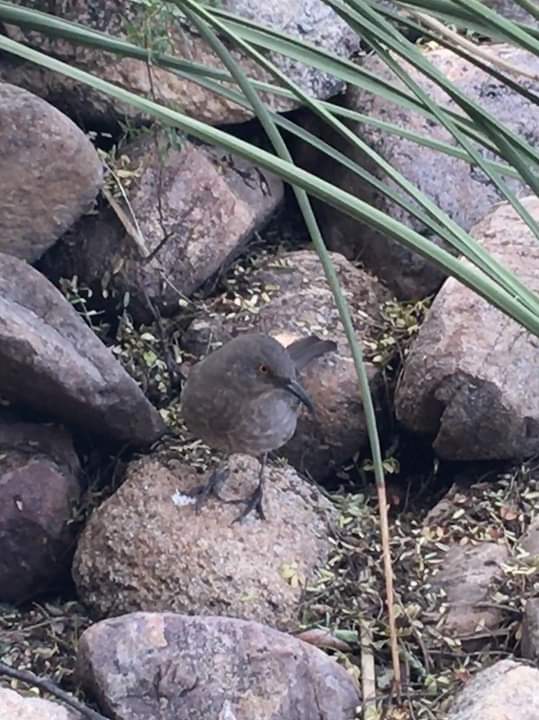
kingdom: Animalia
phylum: Chordata
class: Aves
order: Passeriformes
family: Mimidae
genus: Toxostoma
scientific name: Toxostoma curvirostre
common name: Curve-billed thrasher
